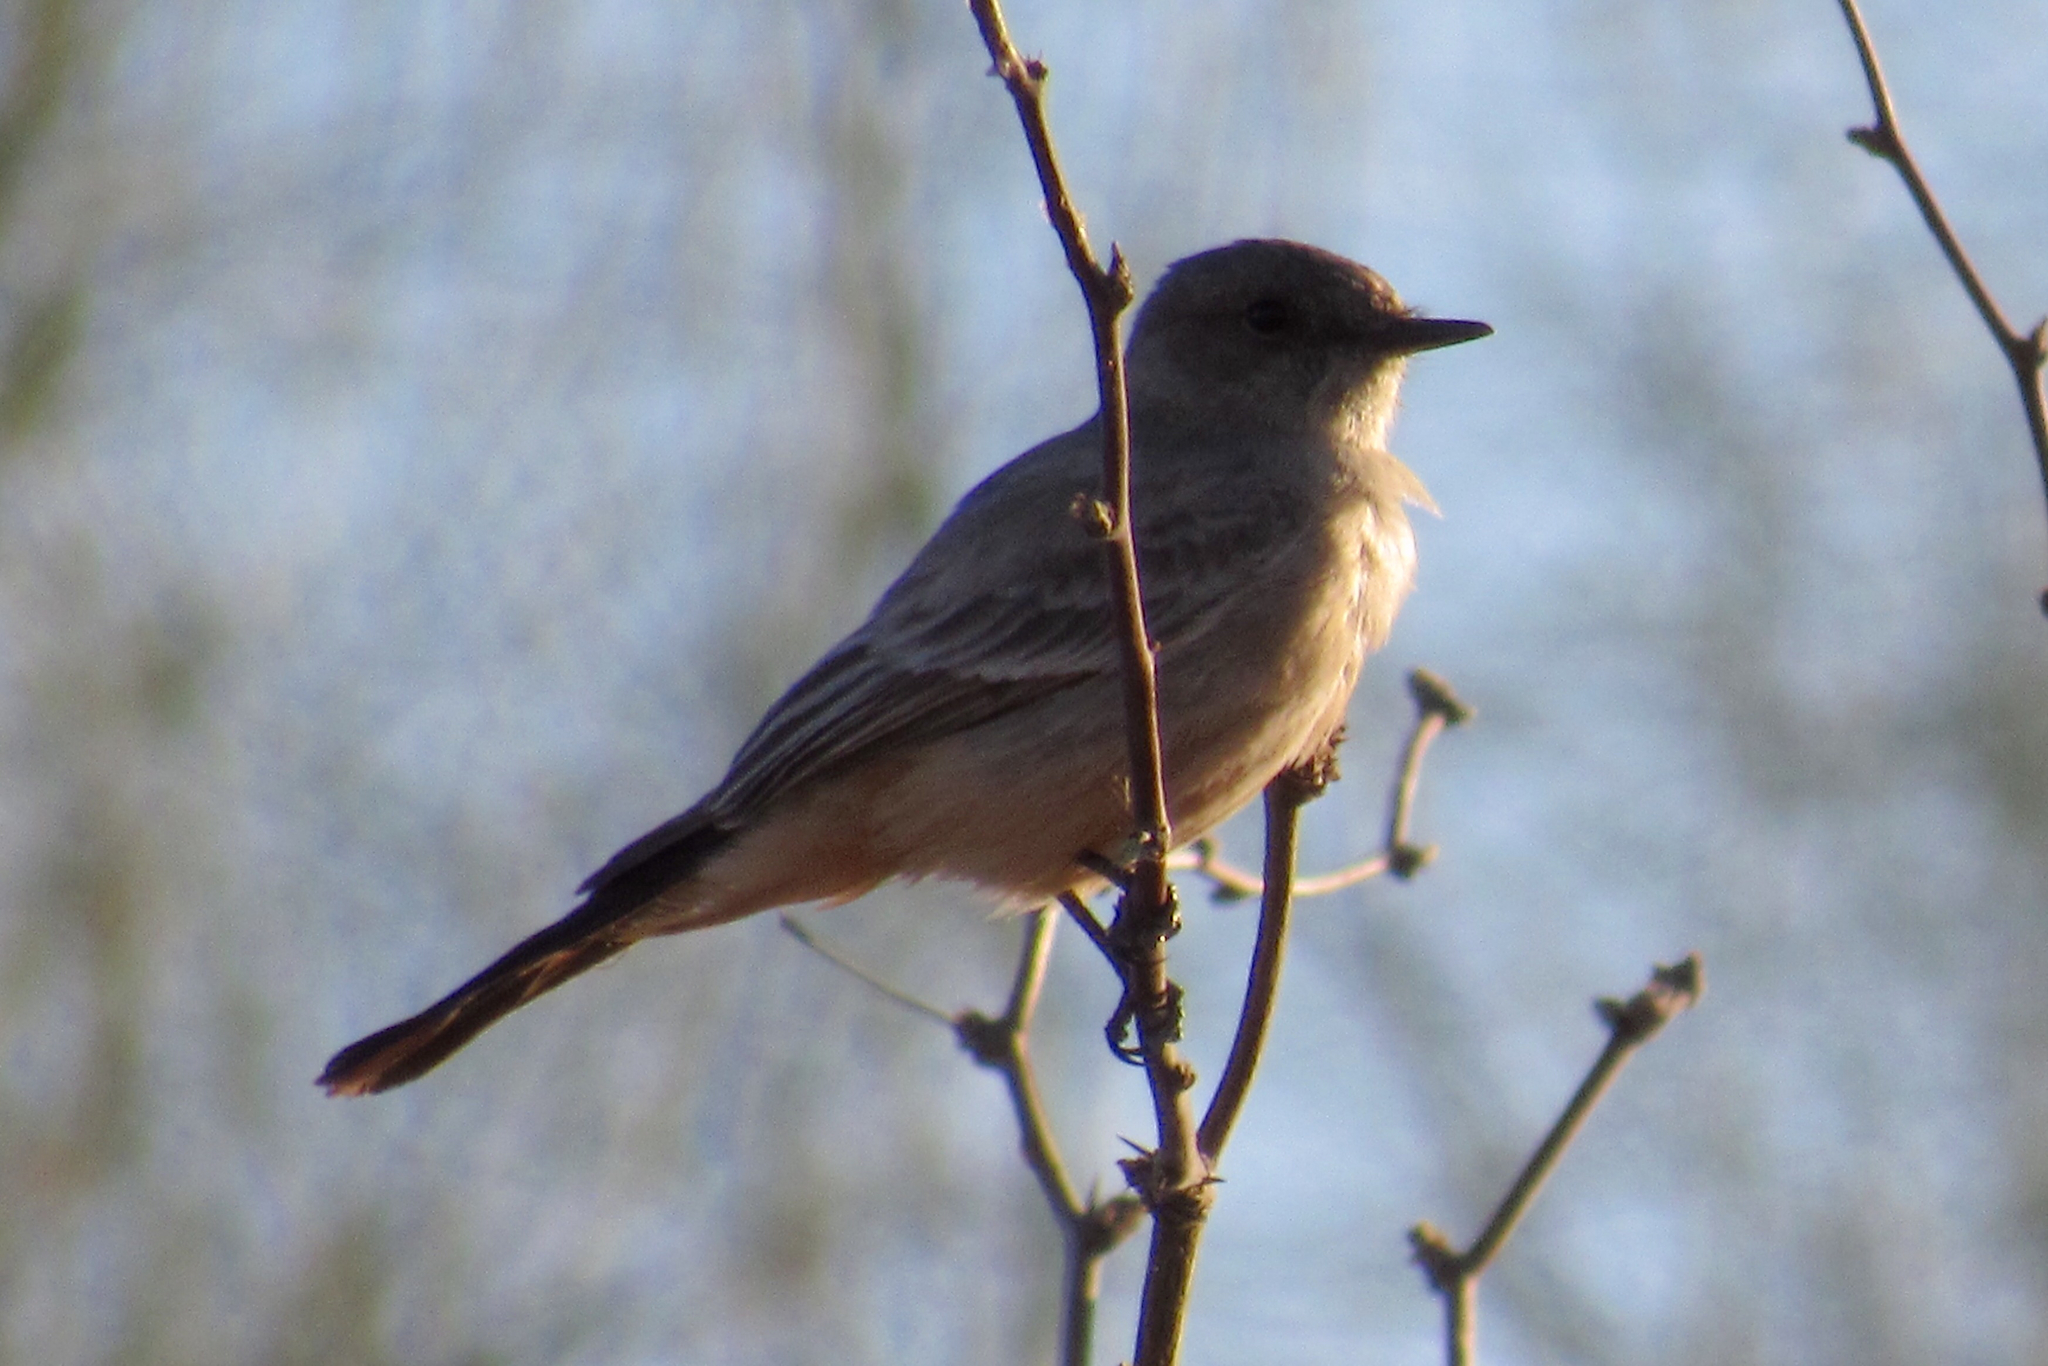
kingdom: Animalia
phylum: Chordata
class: Aves
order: Passeriformes
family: Tyrannidae
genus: Sayornis
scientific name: Sayornis saya
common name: Say's phoebe
